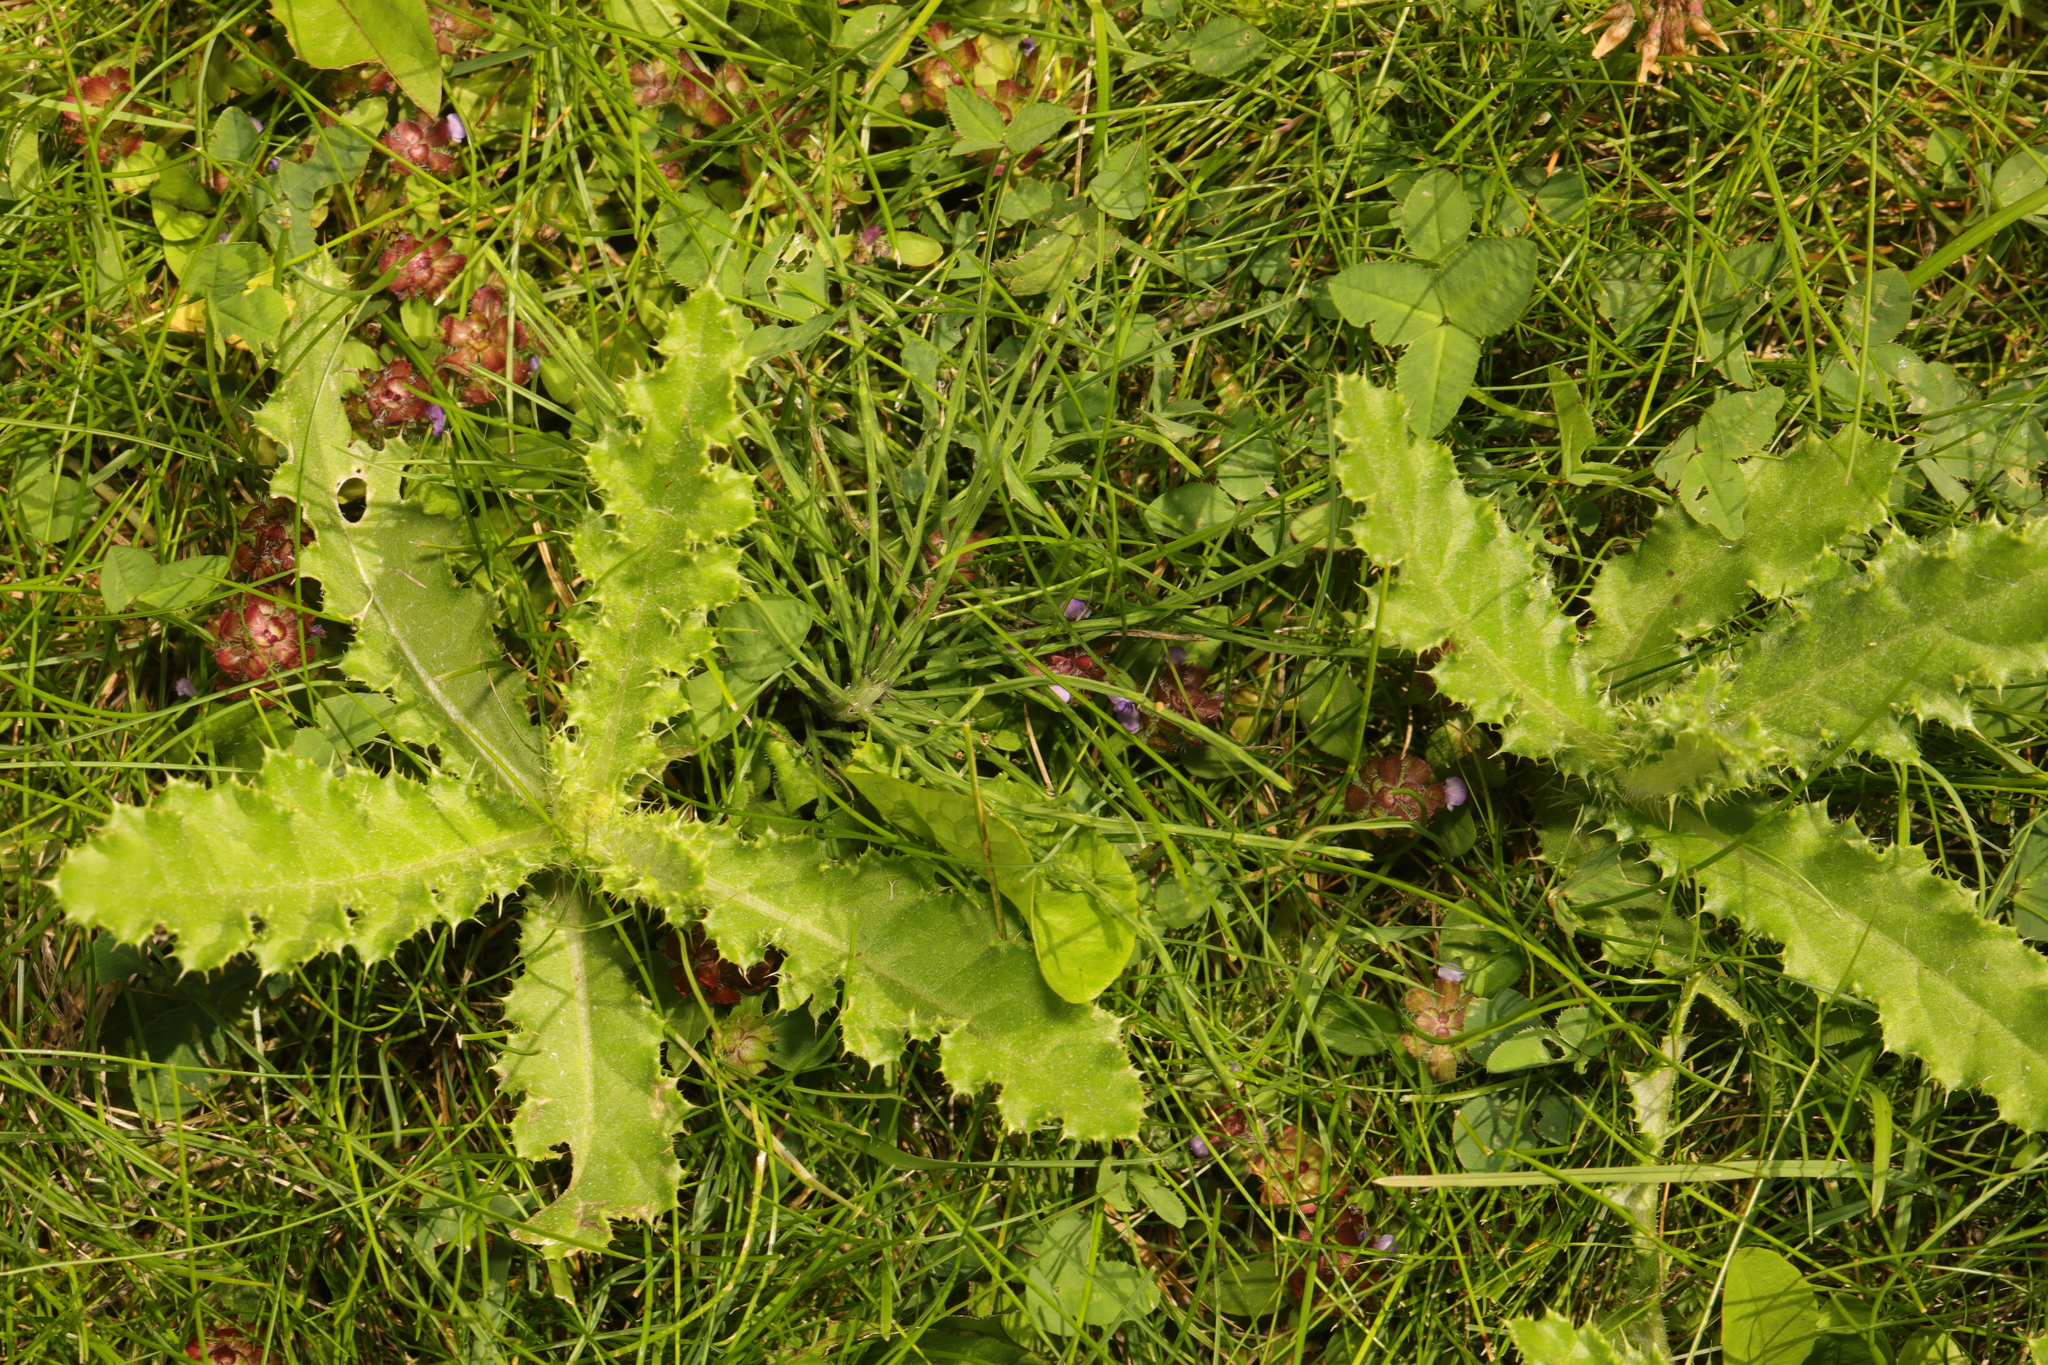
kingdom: Plantae
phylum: Tracheophyta
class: Magnoliopsida
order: Asterales
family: Asteraceae
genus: Cirsium
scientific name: Cirsium arvense
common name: Creeping thistle
